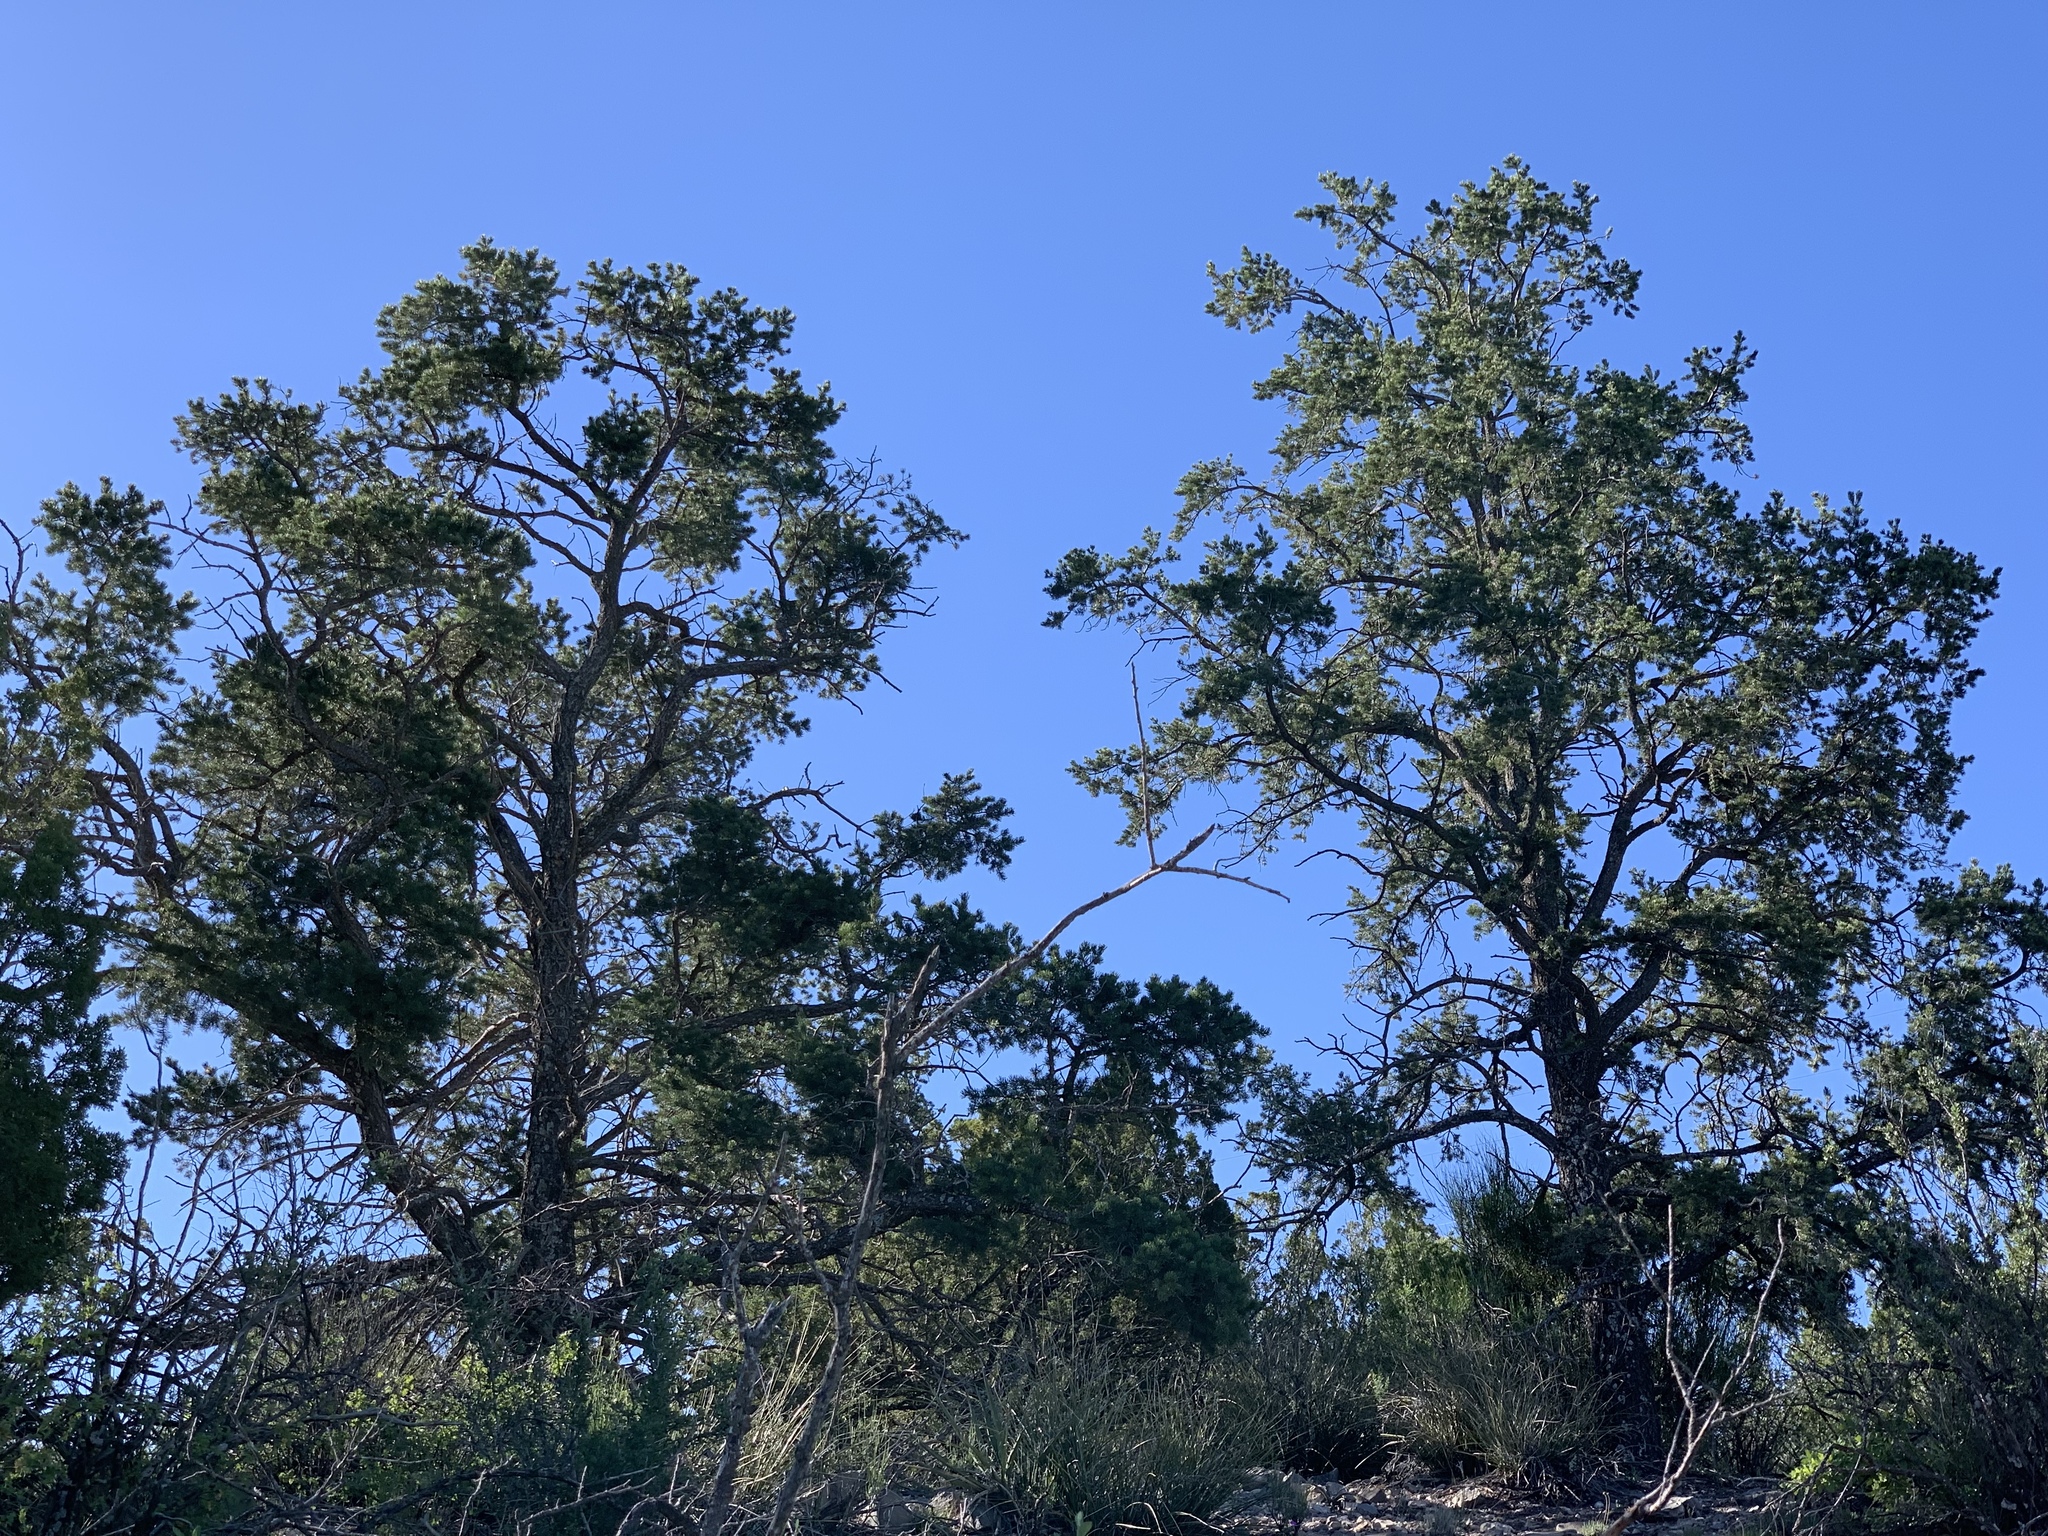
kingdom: Plantae
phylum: Tracheophyta
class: Pinopsida
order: Pinales
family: Pinaceae
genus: Pinus
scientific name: Pinus edulis
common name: Colorado pinyon
